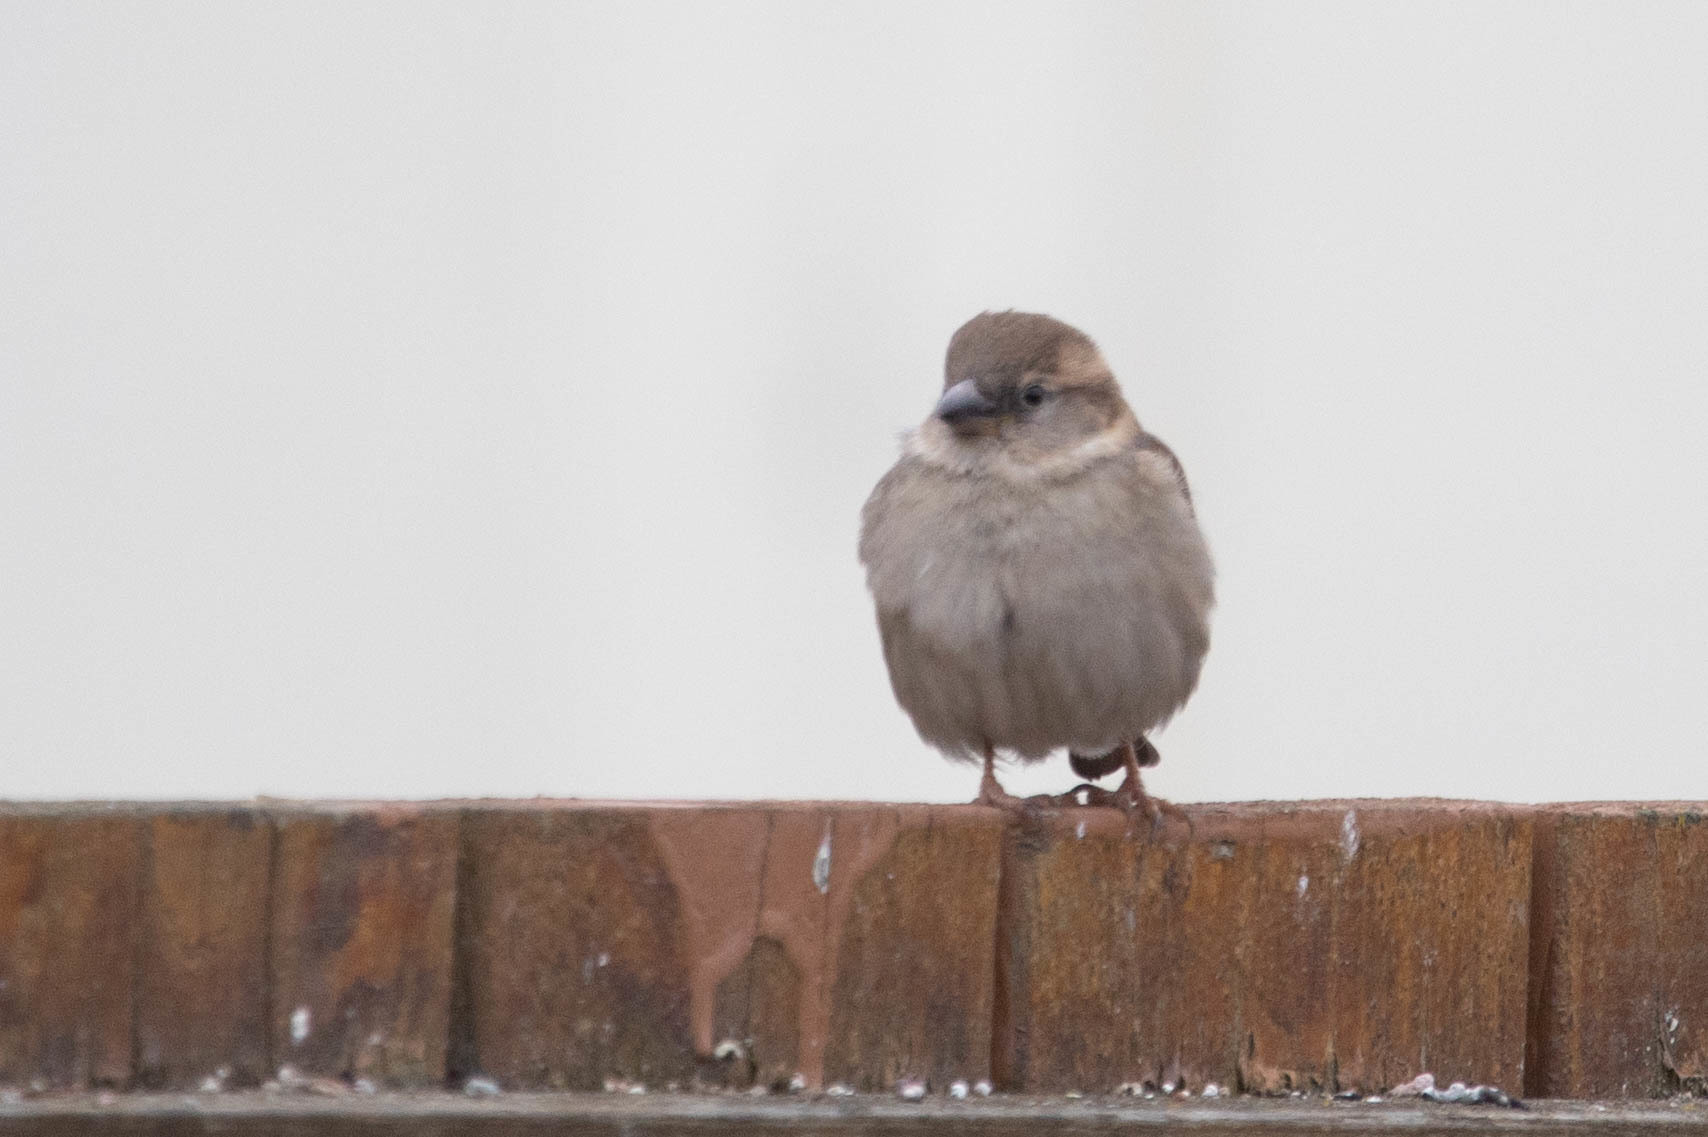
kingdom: Animalia
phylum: Chordata
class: Aves
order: Passeriformes
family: Passeridae
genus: Passer
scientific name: Passer domesticus
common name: House sparrow
